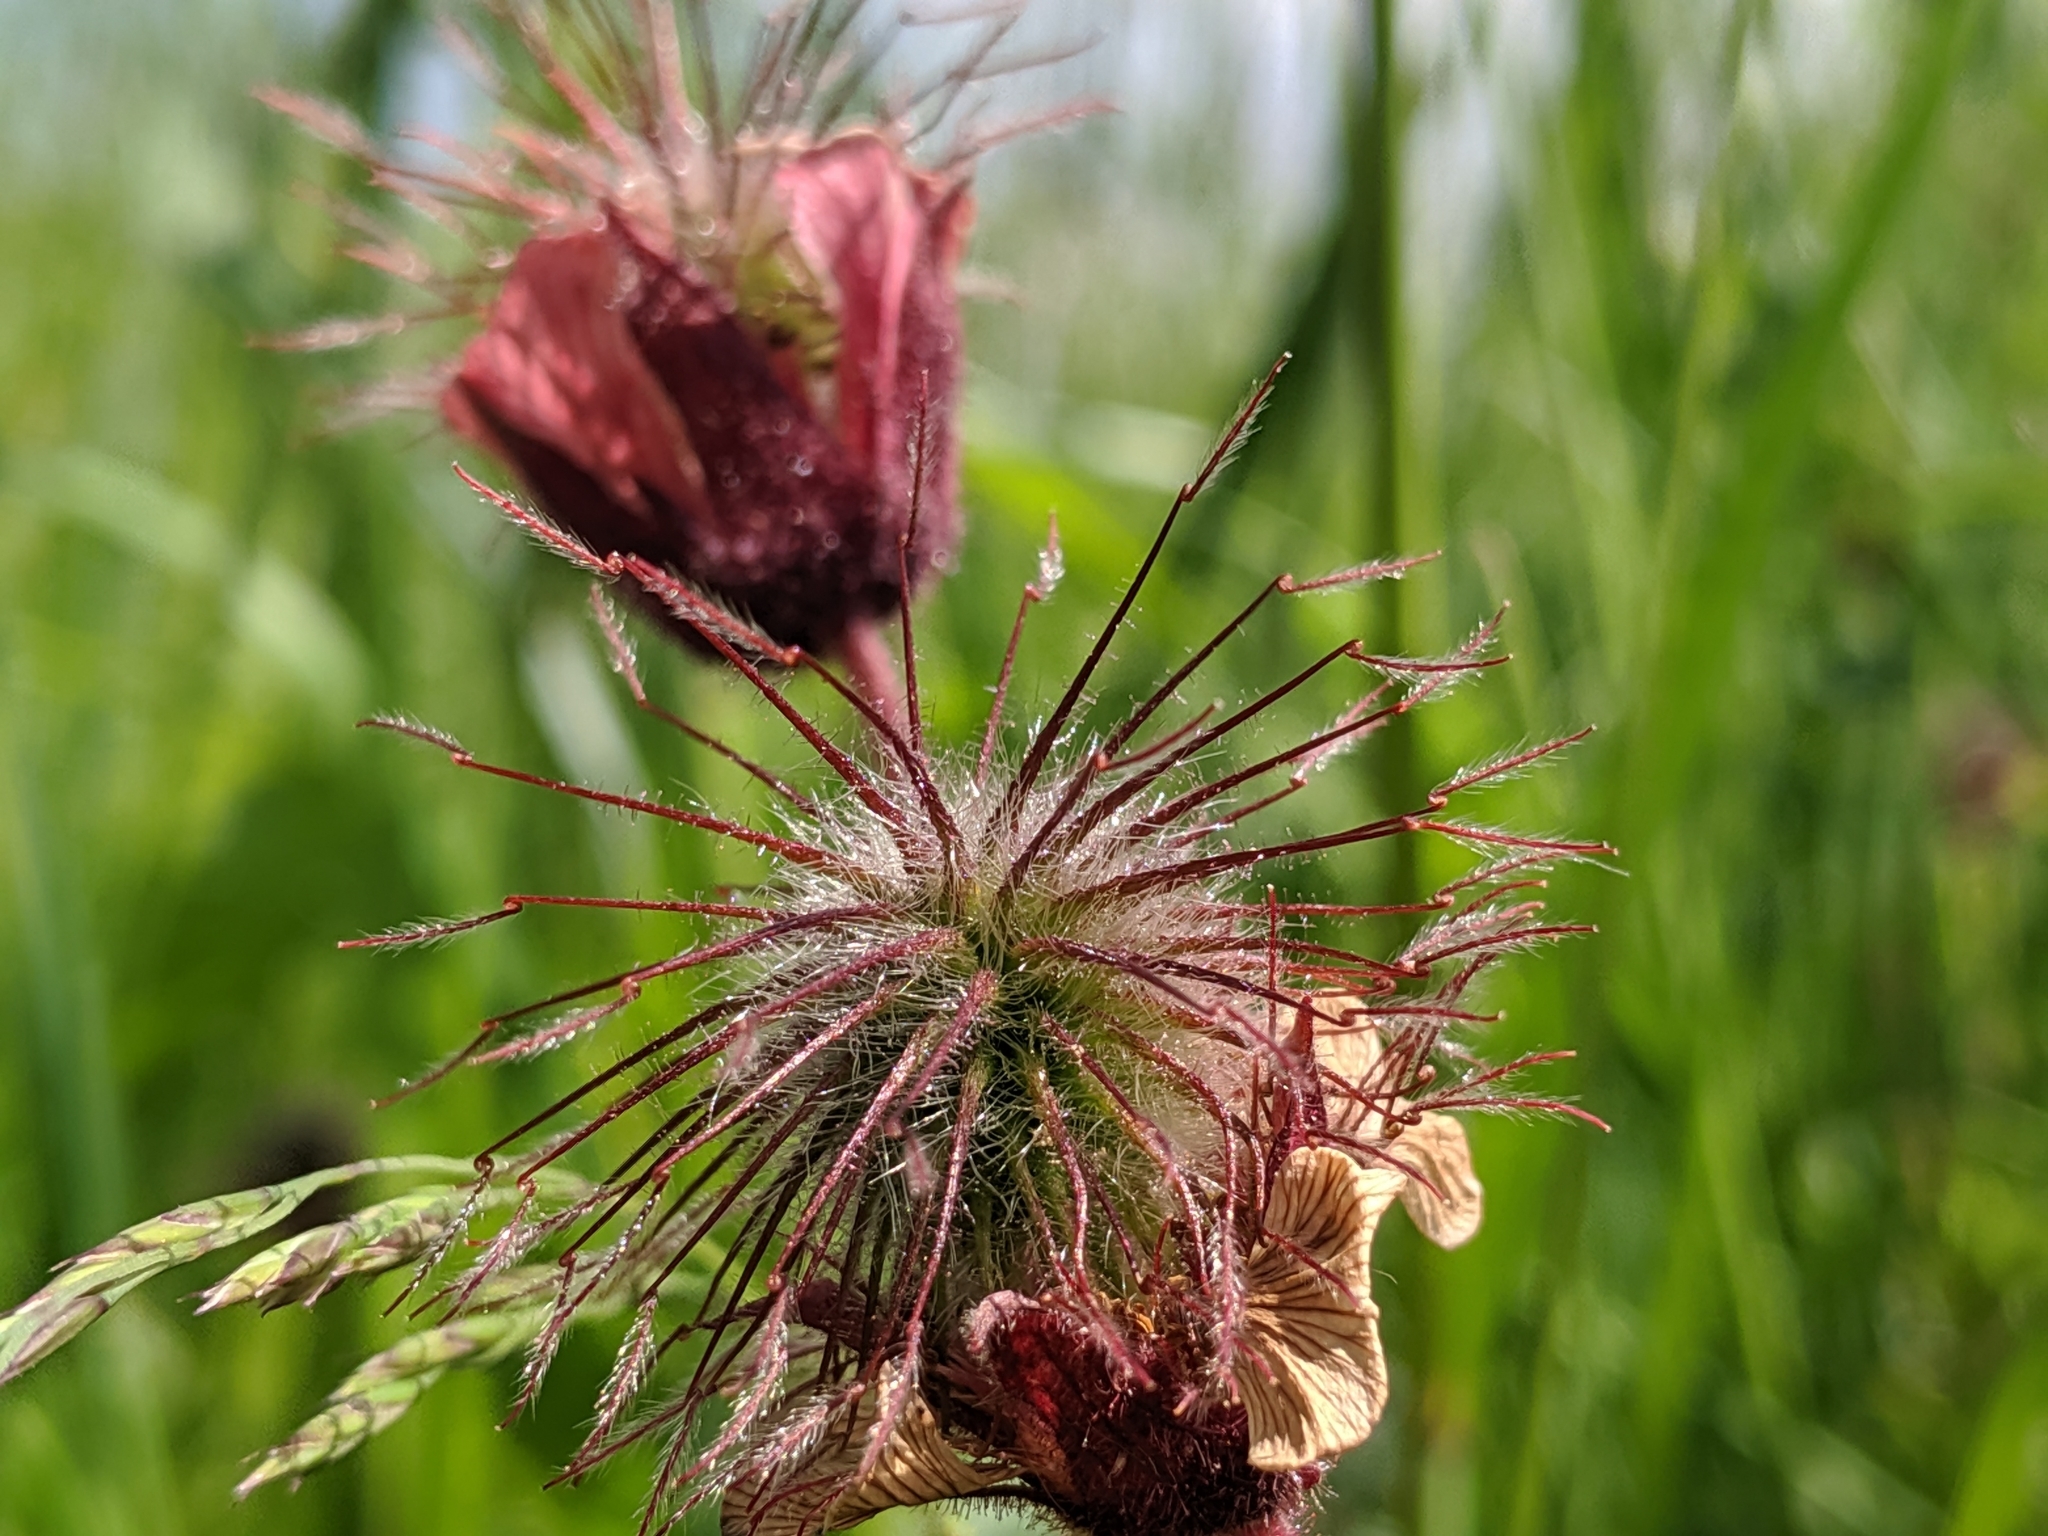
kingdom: Plantae
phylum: Tracheophyta
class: Magnoliopsida
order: Rosales
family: Rosaceae
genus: Geum
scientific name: Geum rivale
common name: Water avens
